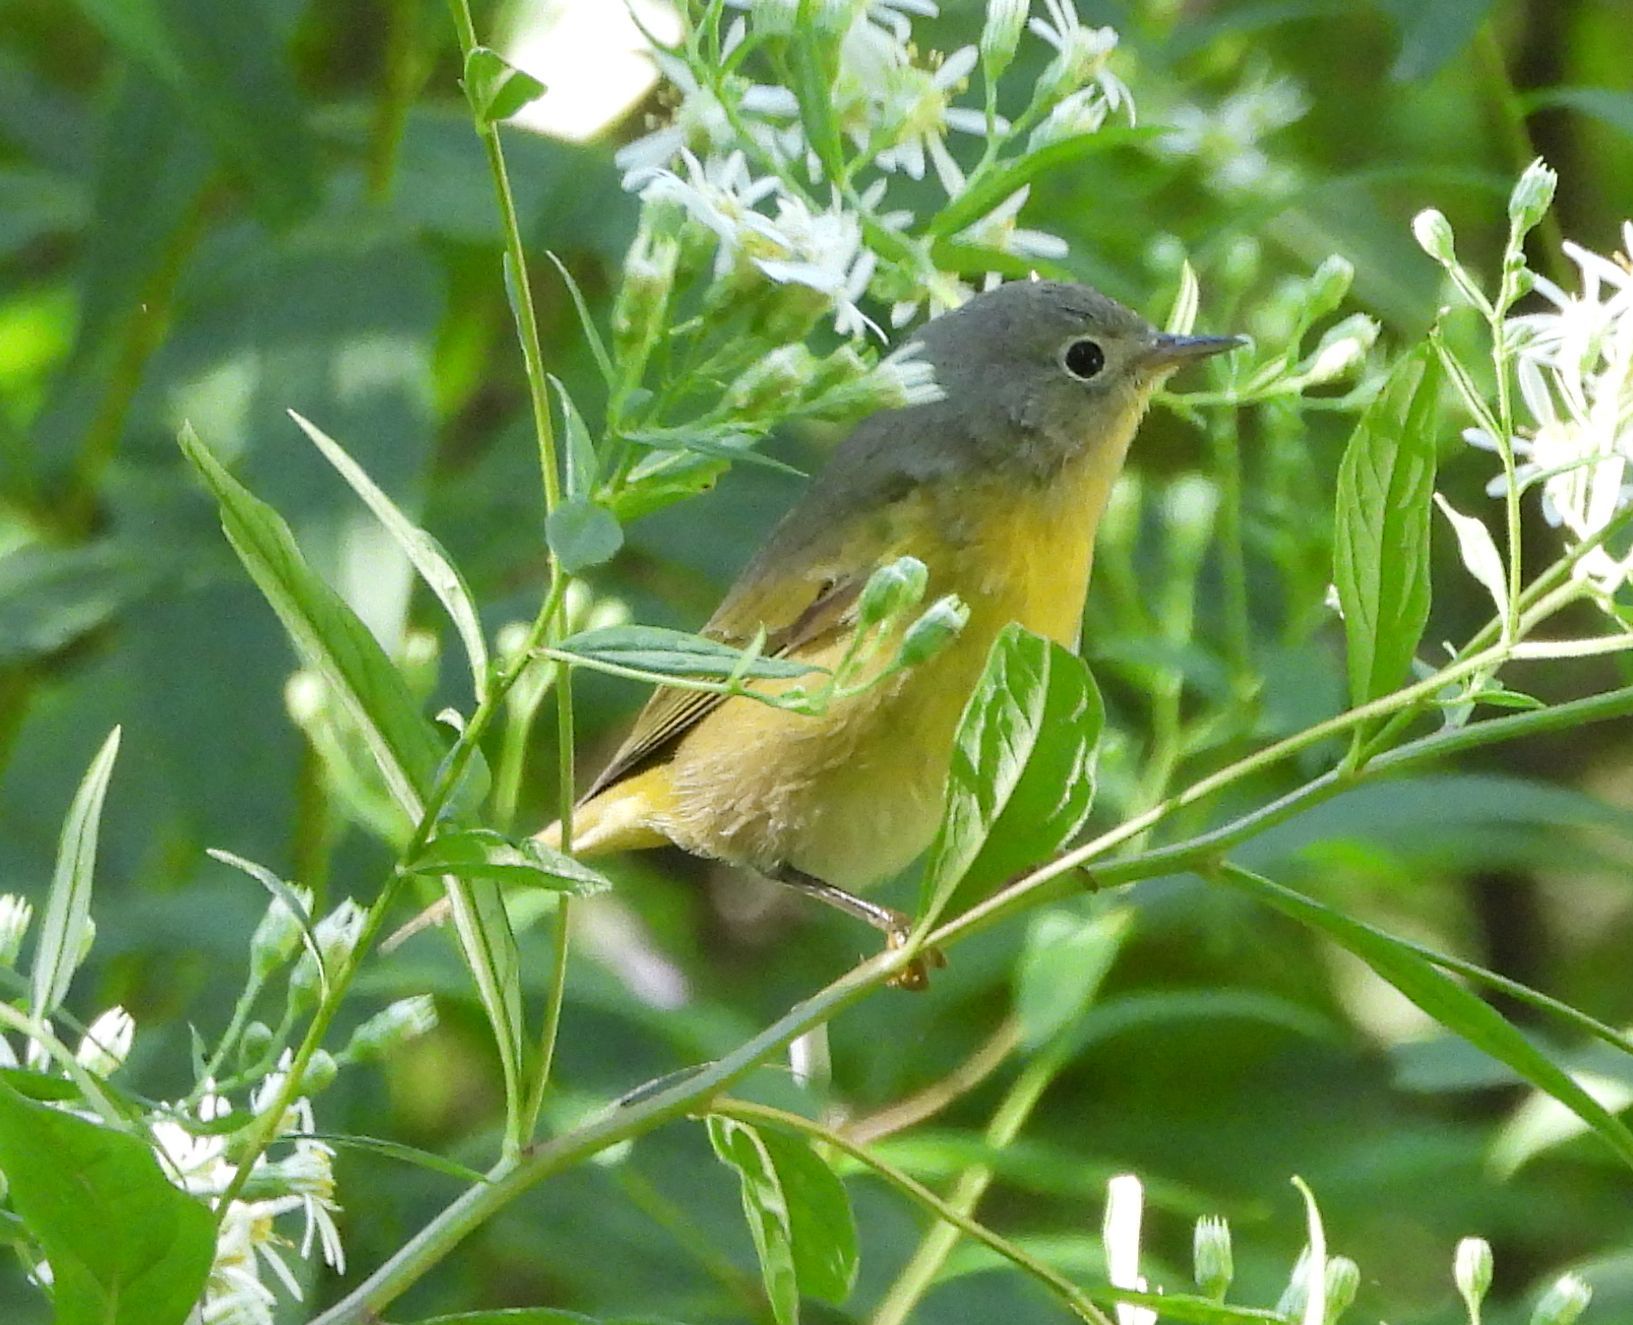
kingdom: Animalia
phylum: Chordata
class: Aves
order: Passeriformes
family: Parulidae
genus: Leiothlypis
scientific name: Leiothlypis ruficapilla
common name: Nashville warbler
